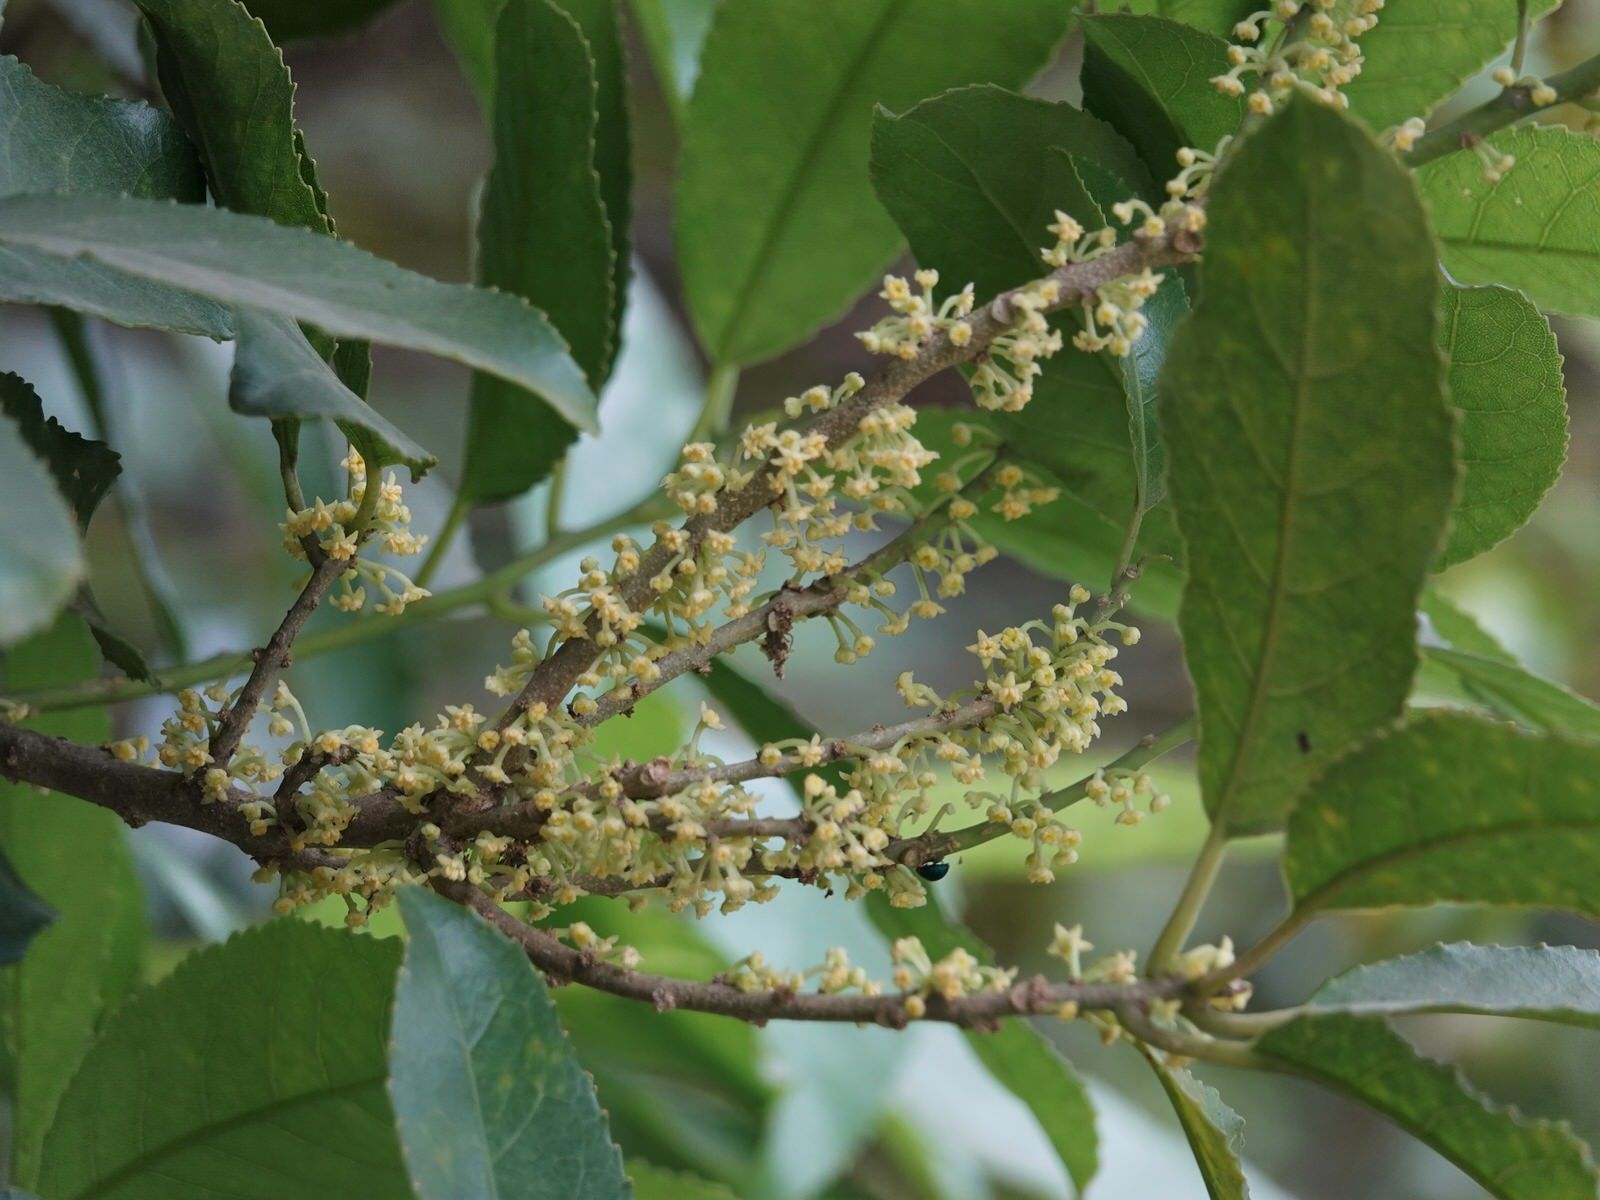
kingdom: Plantae
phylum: Tracheophyta
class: Magnoliopsida
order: Malpighiales
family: Violaceae
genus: Melicytus
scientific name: Melicytus ramiflorus
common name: Mahoe
